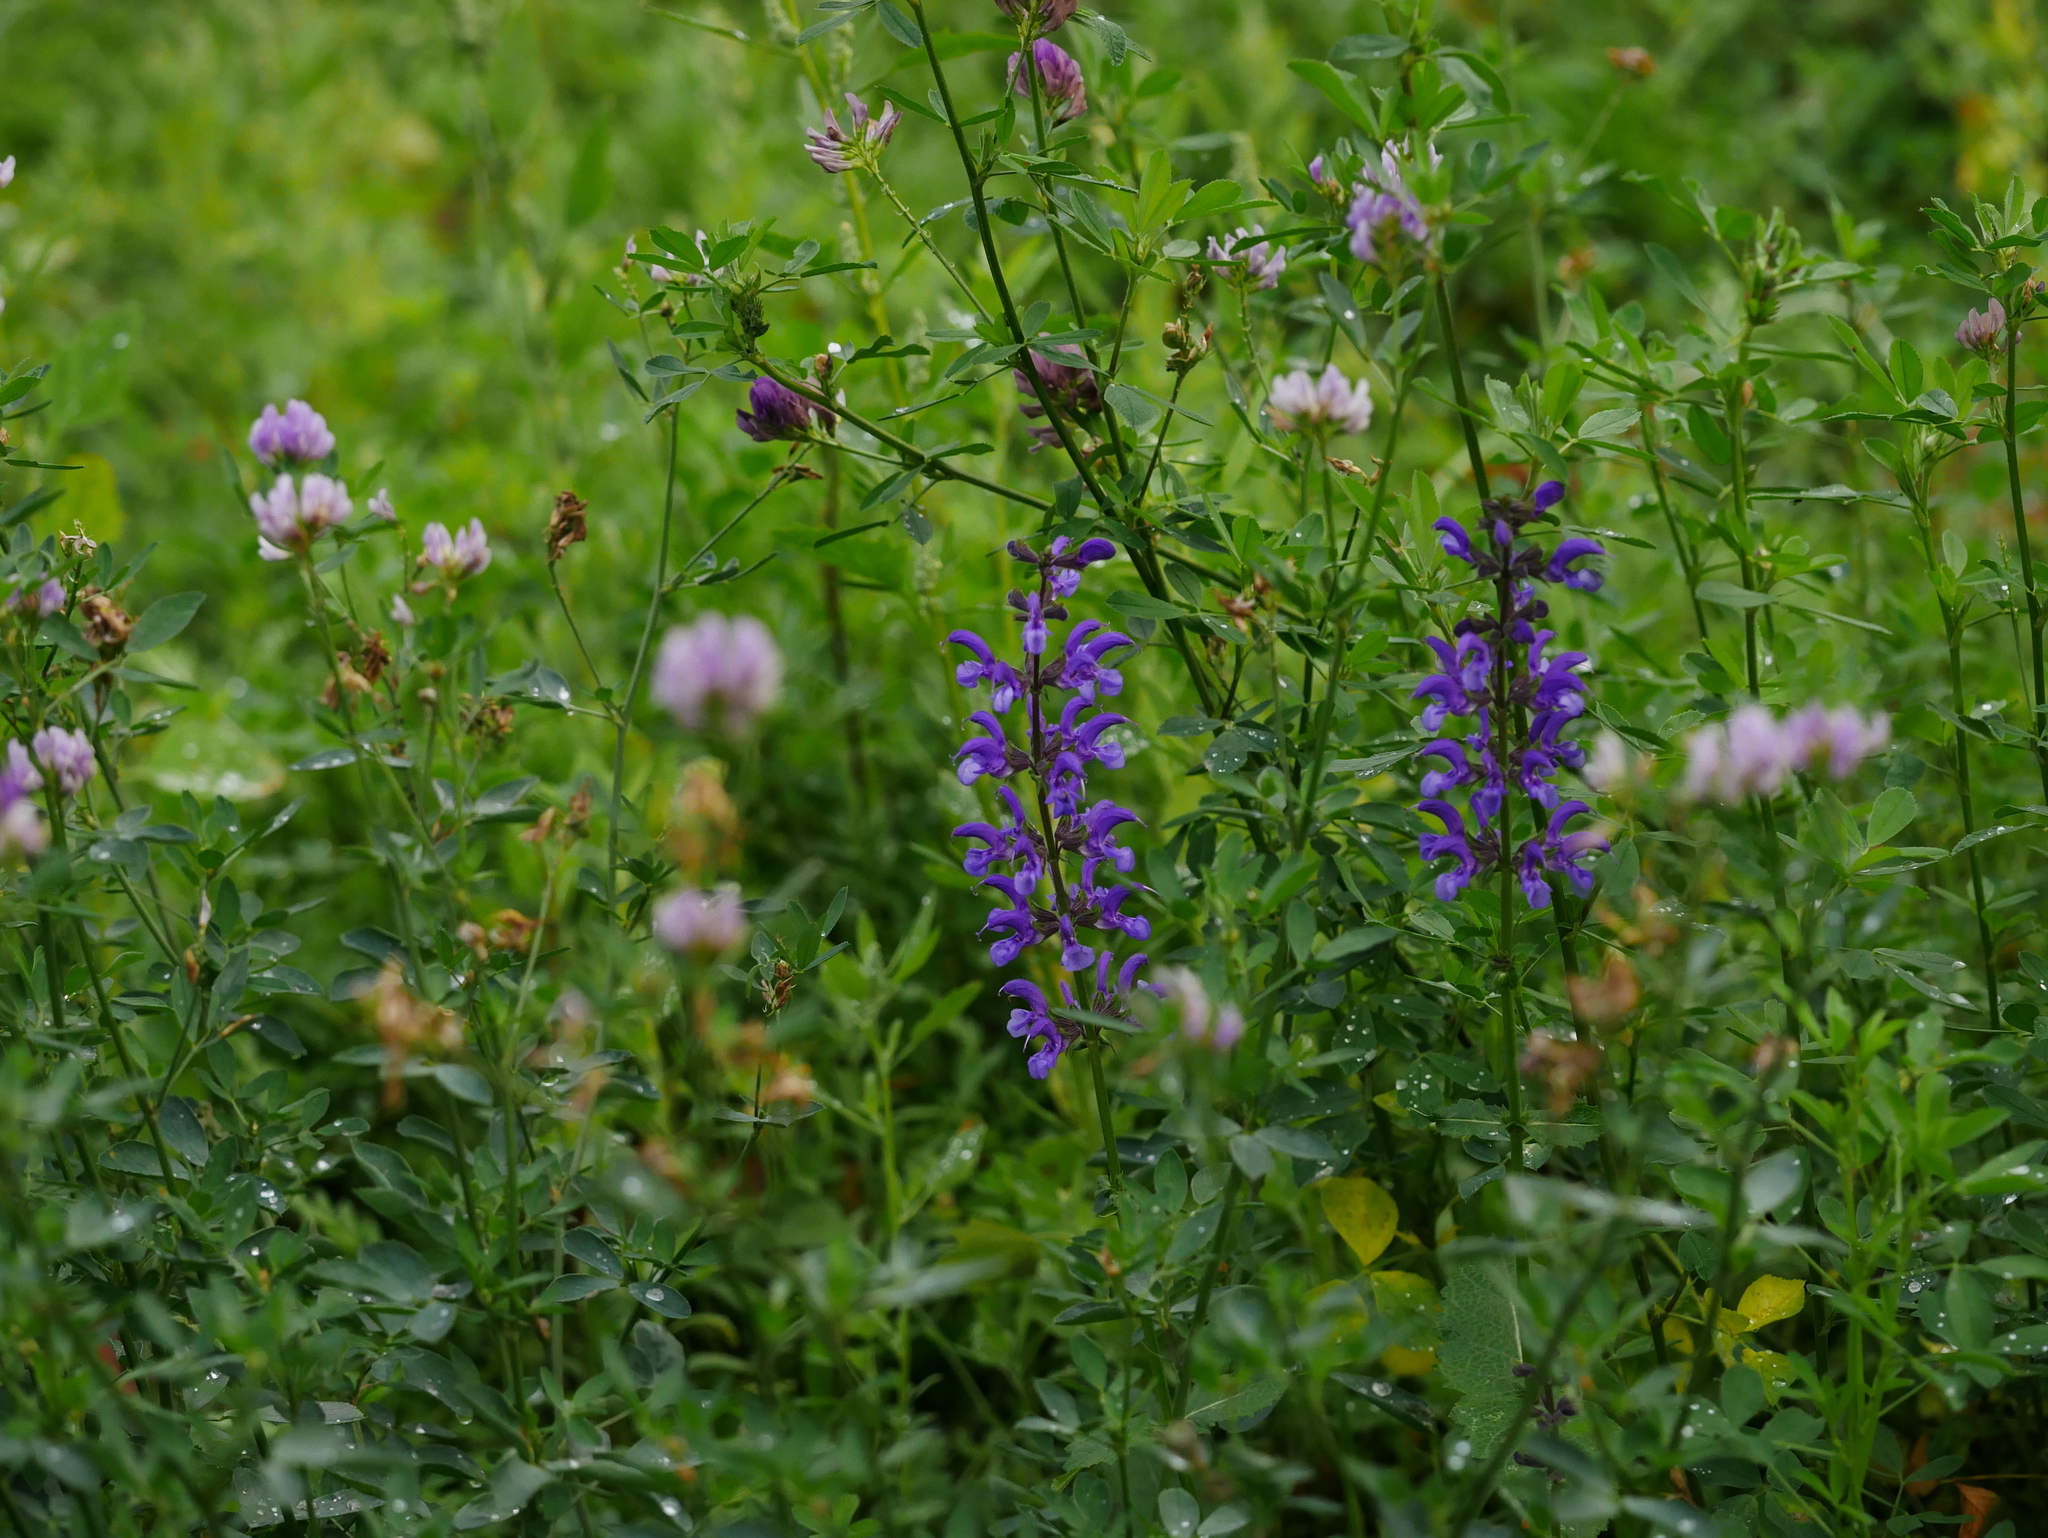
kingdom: Plantae
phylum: Tracheophyta
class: Magnoliopsida
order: Lamiales
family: Lamiaceae
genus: Salvia
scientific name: Salvia pratensis
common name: Meadow sage
